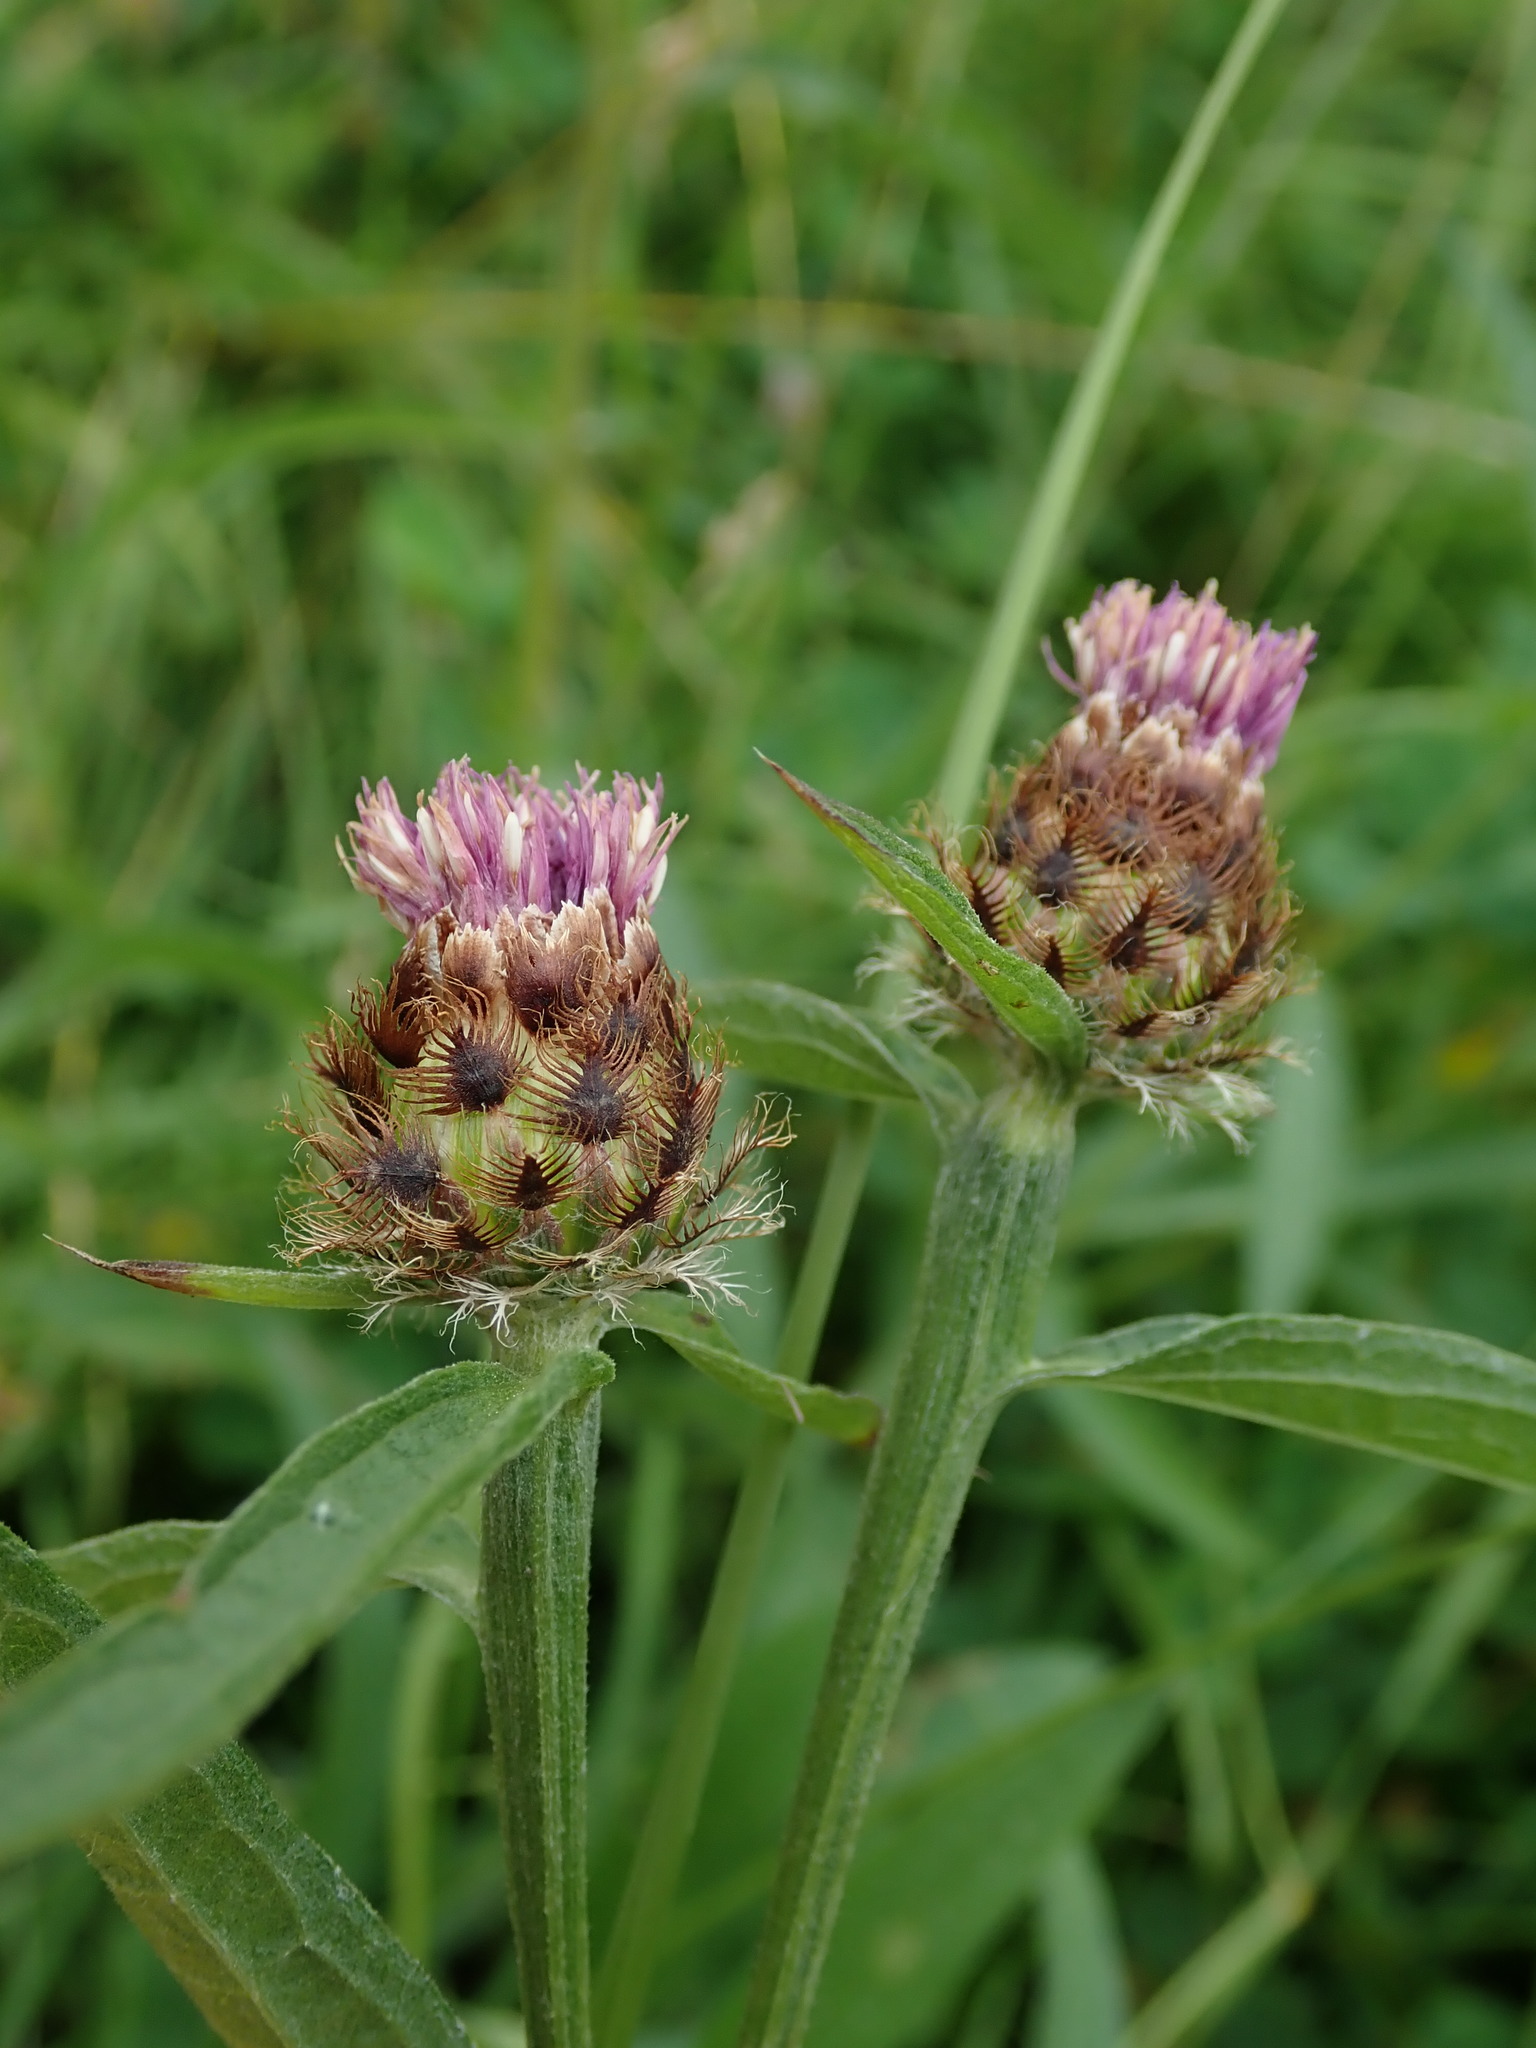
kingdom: Plantae
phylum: Tracheophyta
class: Magnoliopsida
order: Asterales
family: Asteraceae
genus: Centaurea
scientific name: Centaurea debeauxii
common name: Slender knapweed
